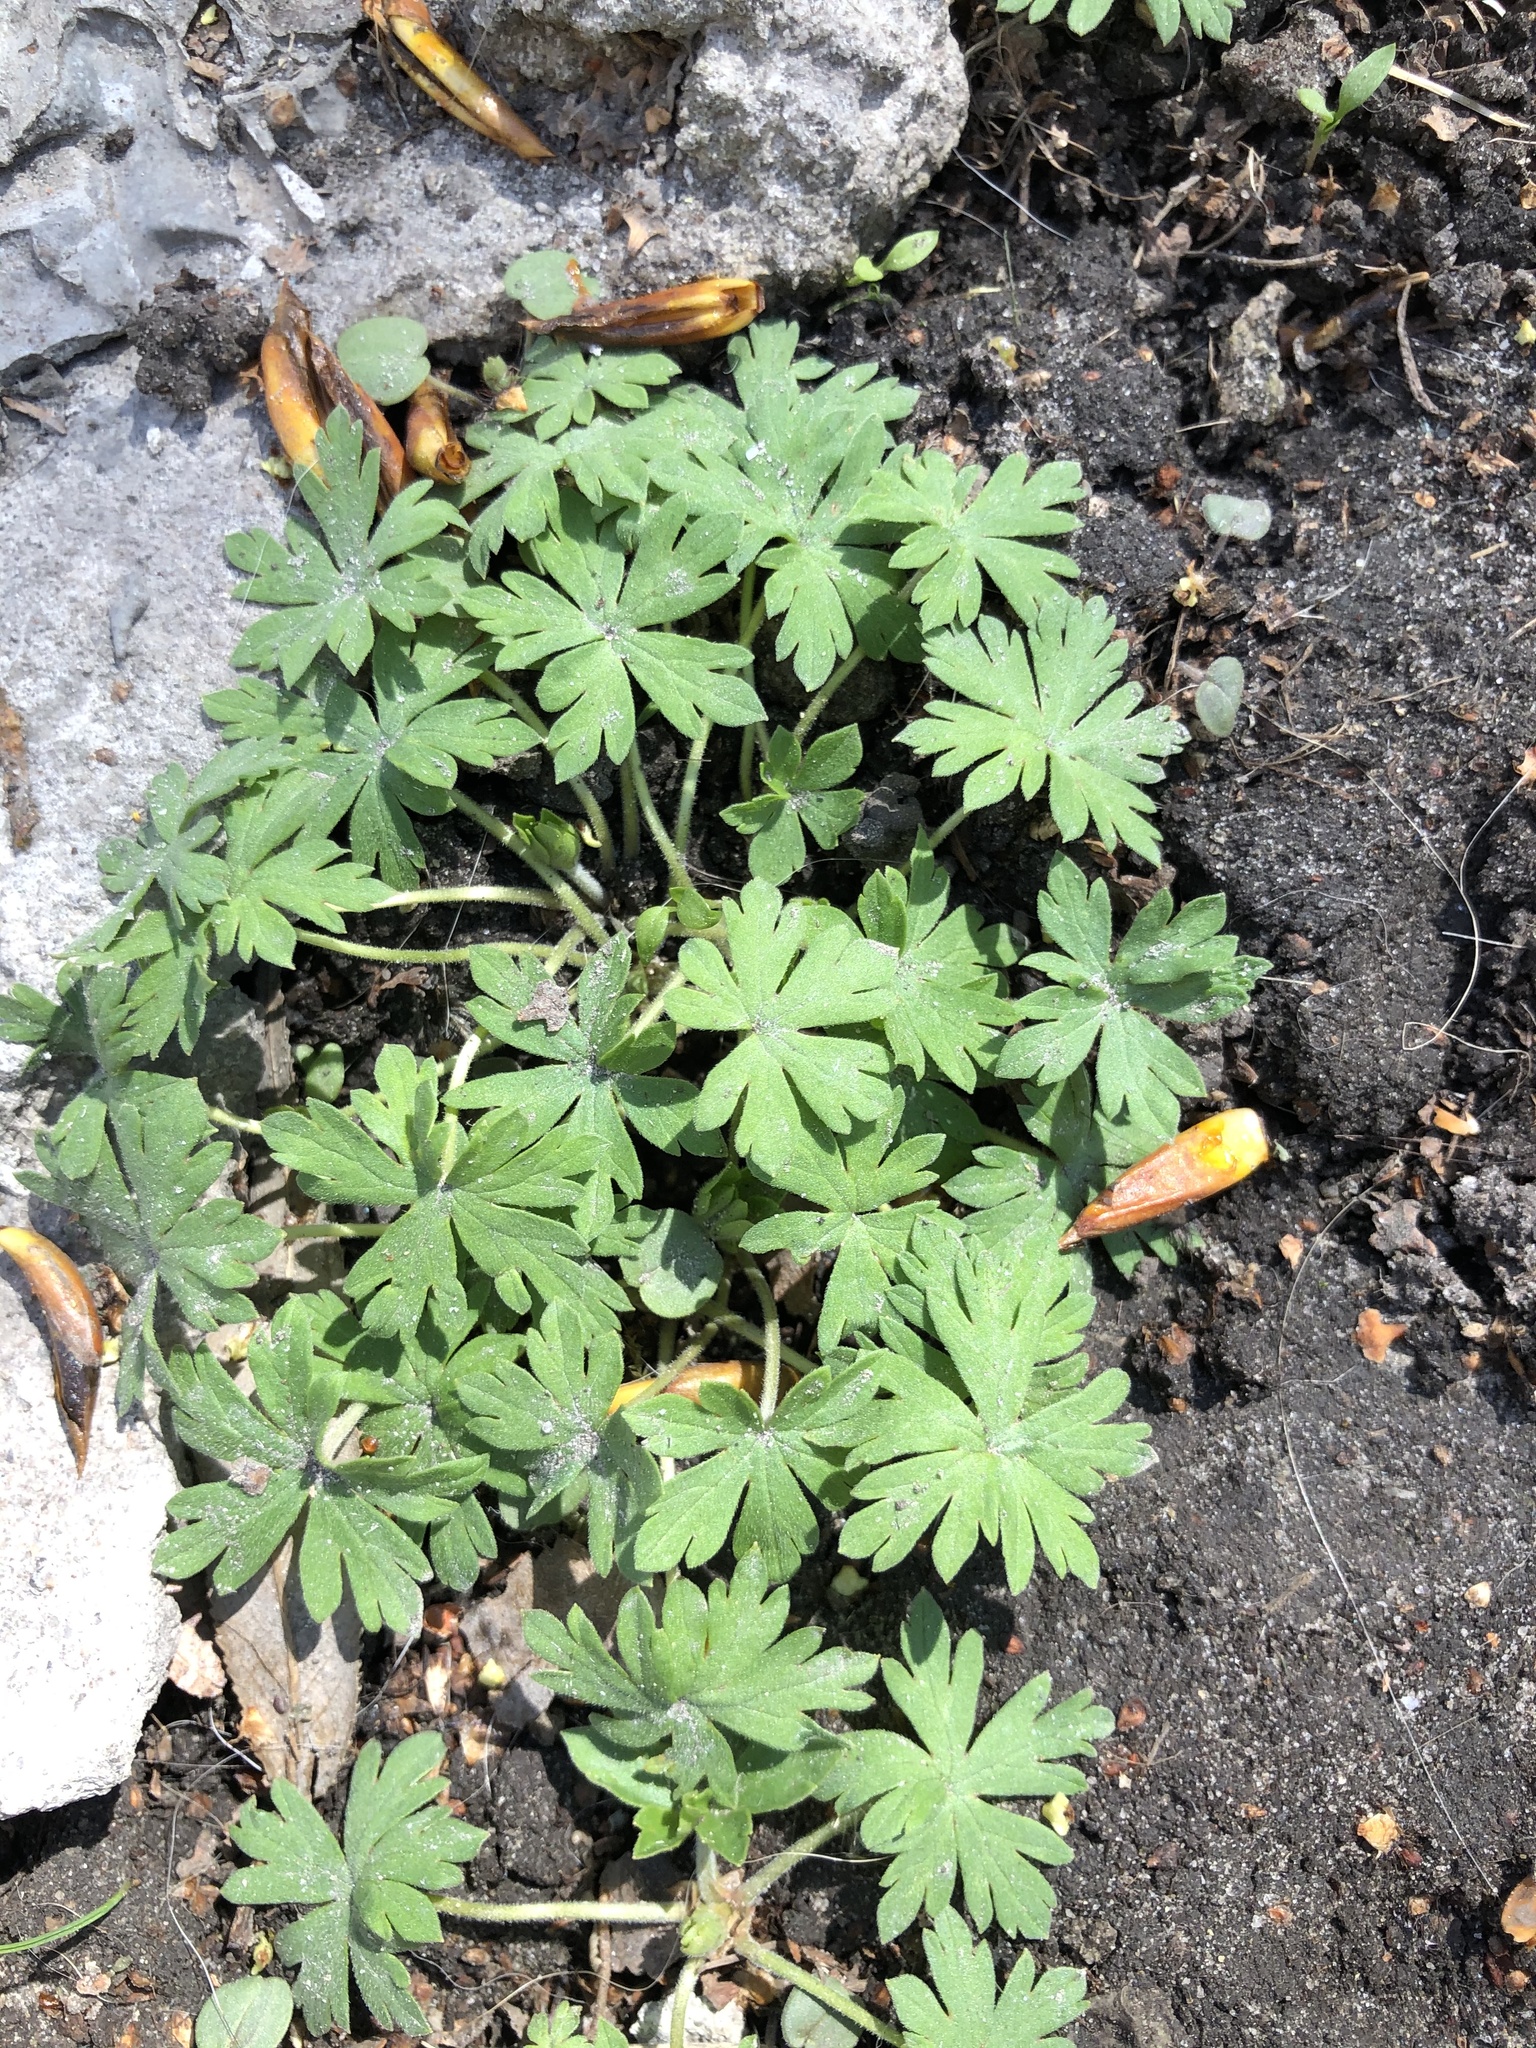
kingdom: Plantae
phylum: Tracheophyta
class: Magnoliopsida
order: Geraniales
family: Geraniaceae
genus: Geranium
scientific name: Geranium sibiricum
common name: Siberian crane's-bill
